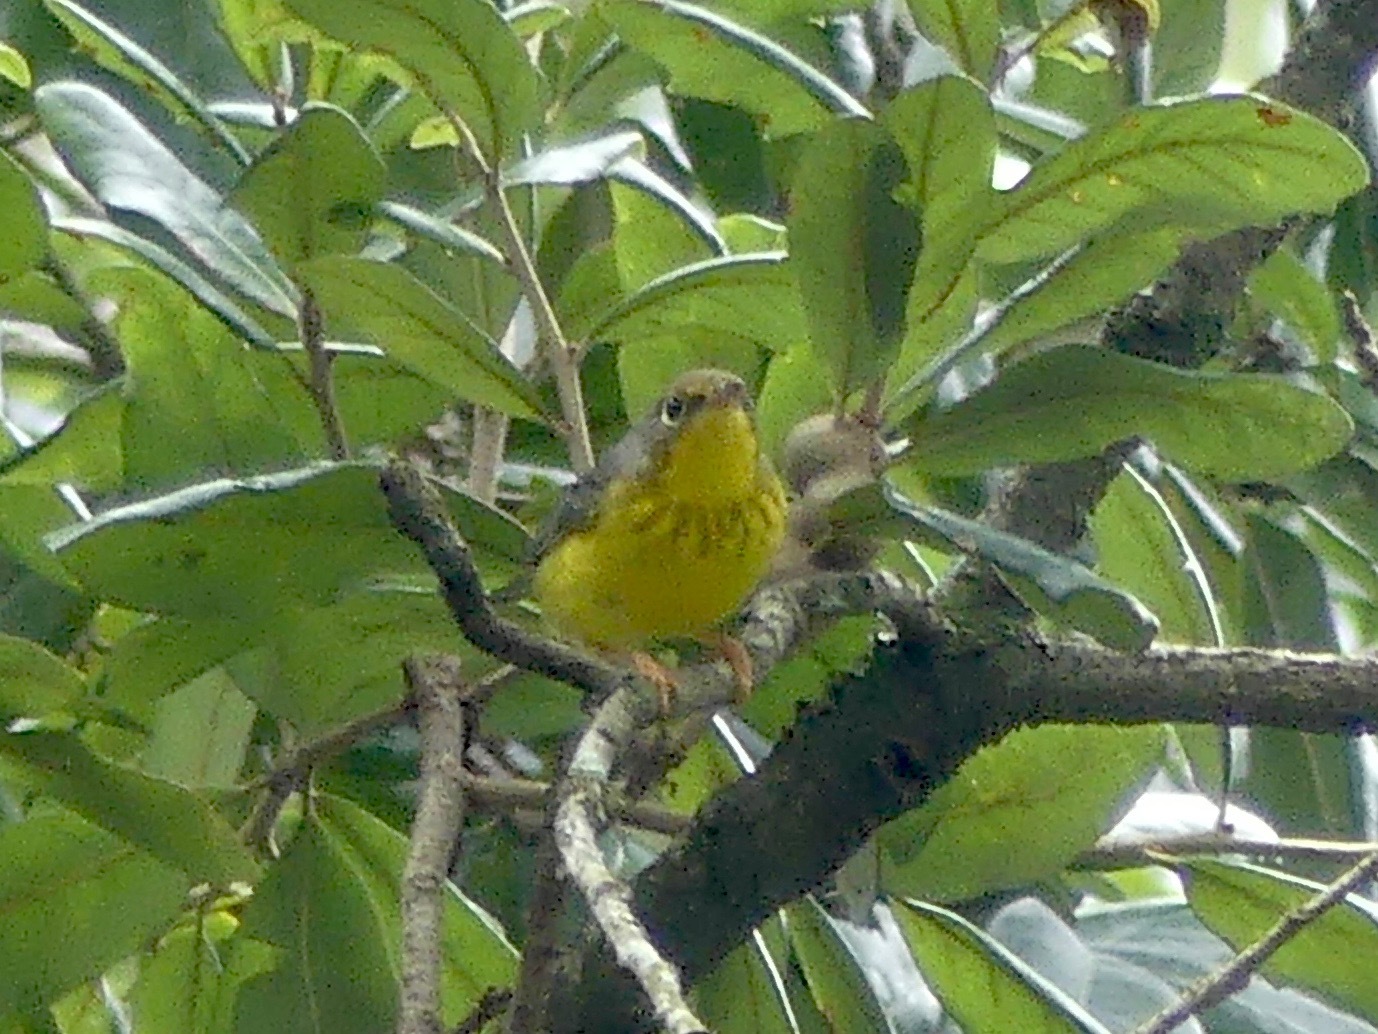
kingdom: Animalia
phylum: Chordata
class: Aves
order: Passeriformes
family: Parulidae
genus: Cardellina
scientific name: Cardellina canadensis
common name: Canada warbler
